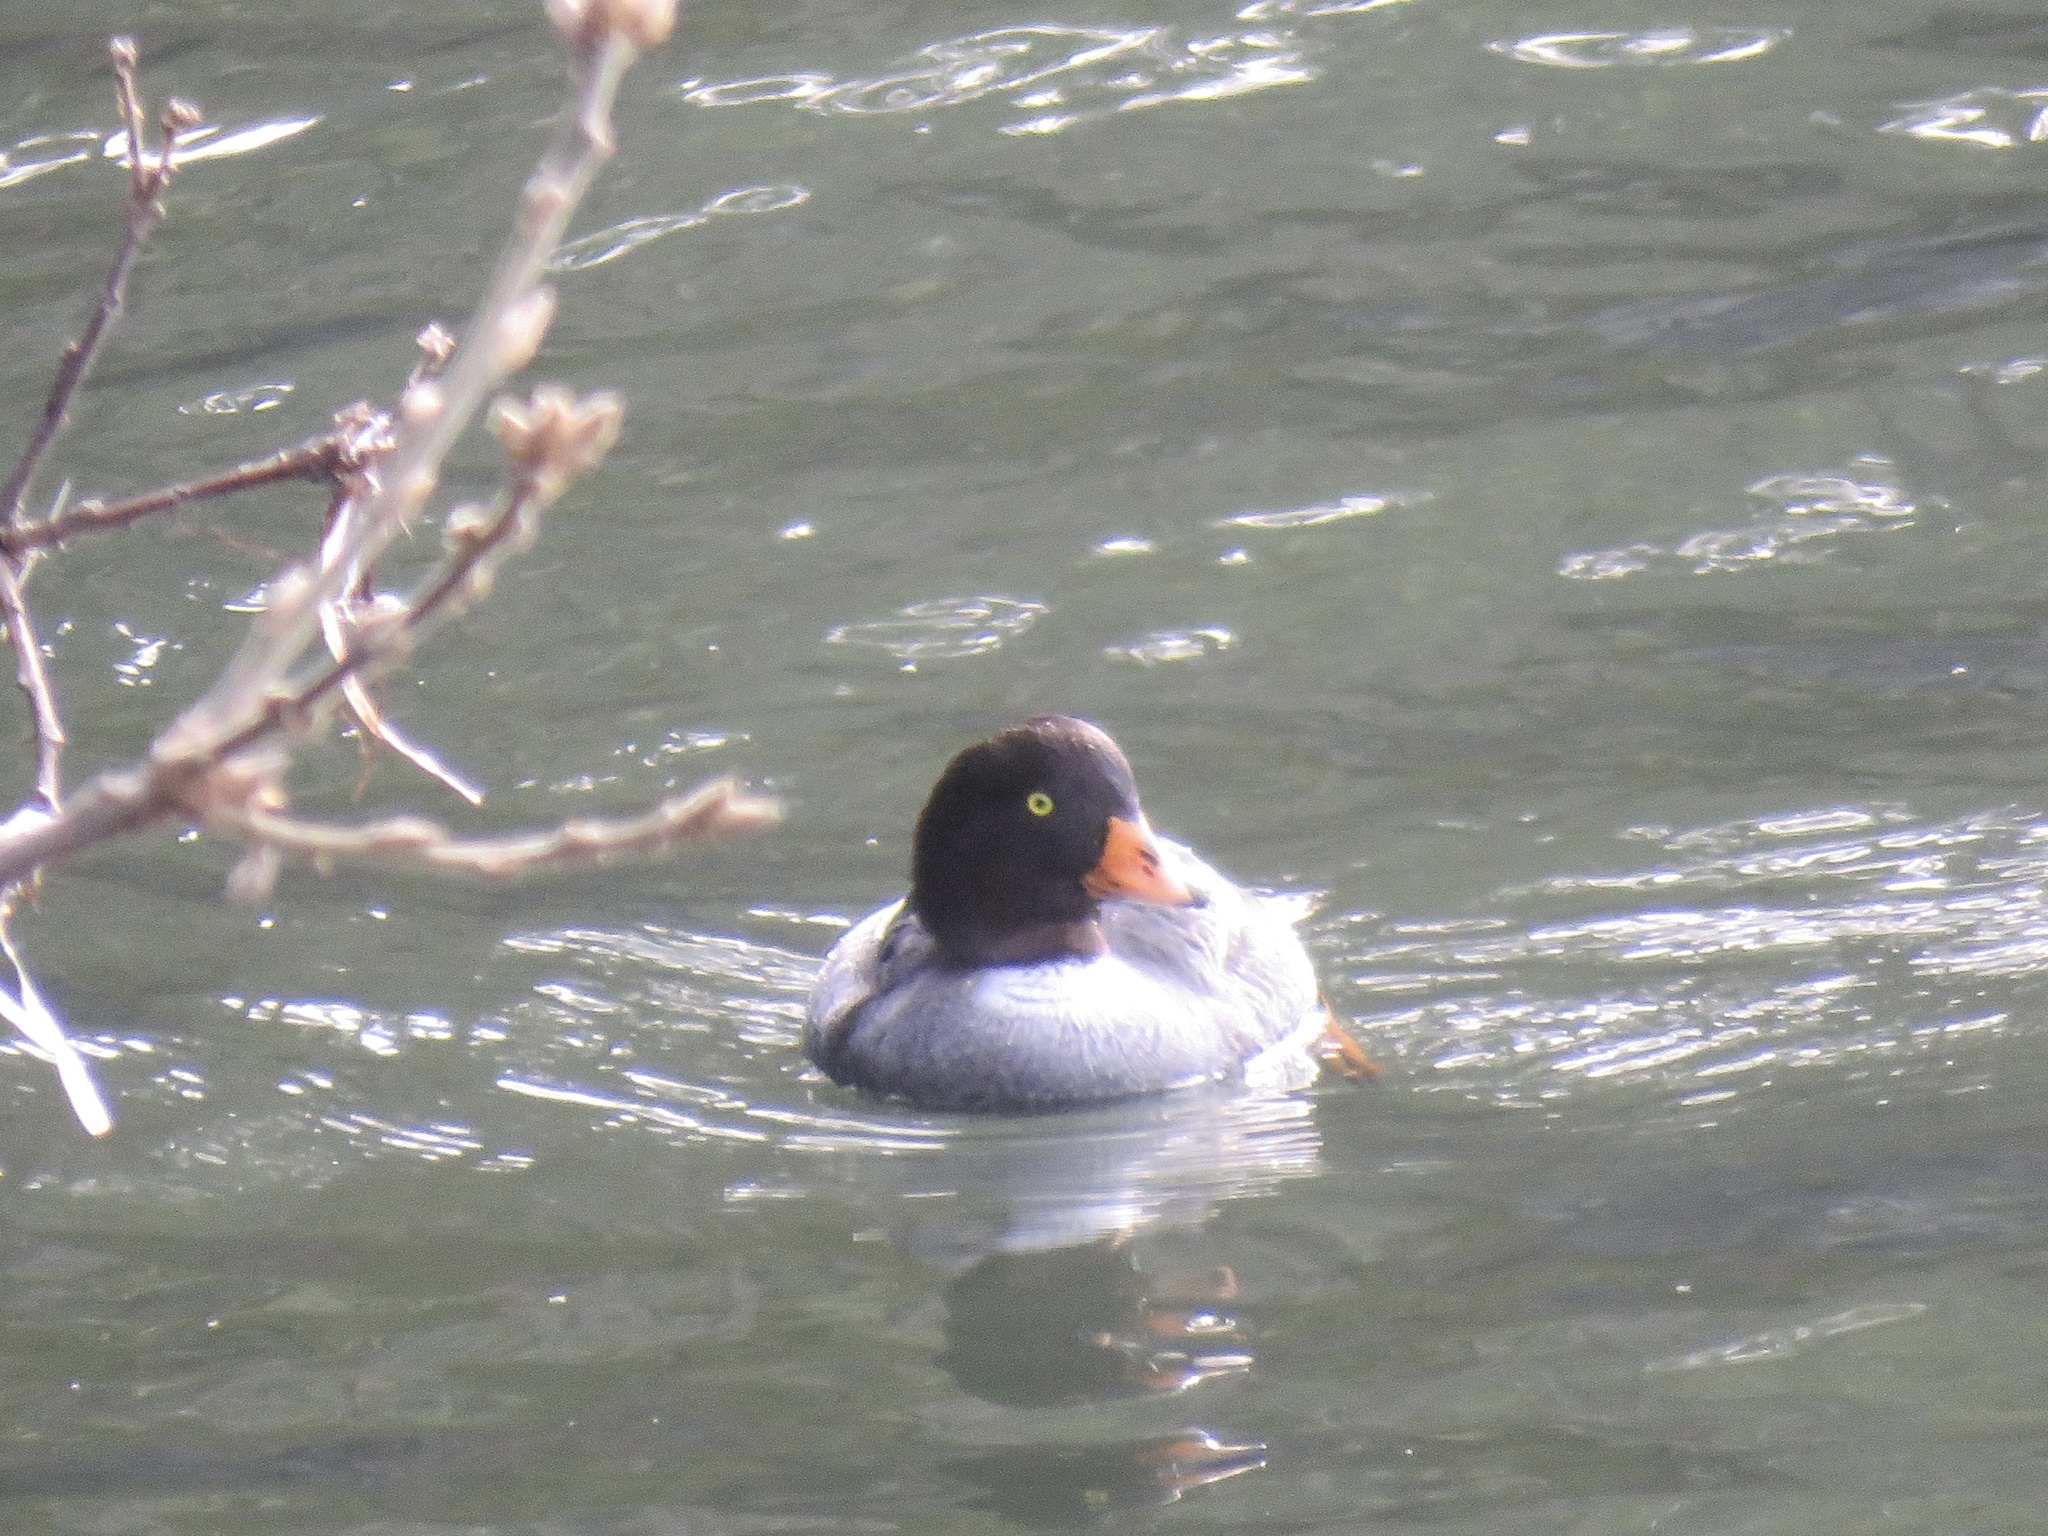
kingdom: Animalia
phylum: Chordata
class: Aves
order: Anseriformes
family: Anatidae
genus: Bucephala
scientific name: Bucephala islandica
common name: Barrow's goldeneye
